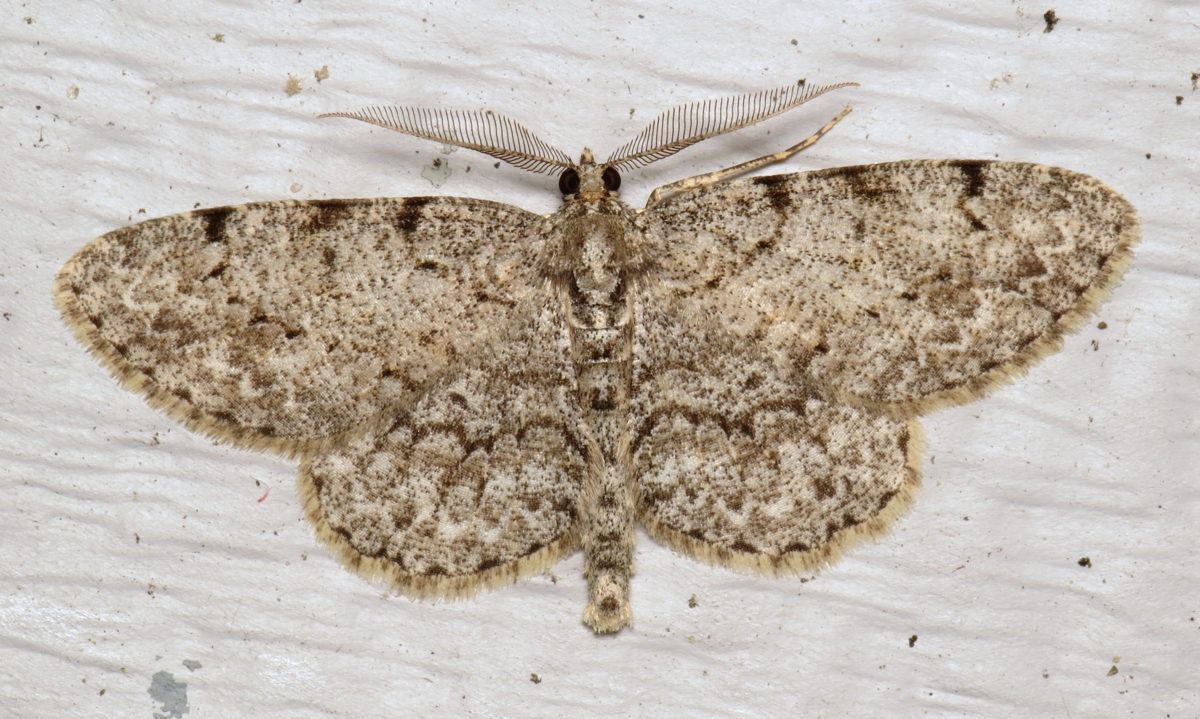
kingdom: Animalia
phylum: Arthropoda
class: Insecta
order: Lepidoptera
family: Geometridae
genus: Protoboarmia
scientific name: Protoboarmia porcelaria
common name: Porcelain gray
